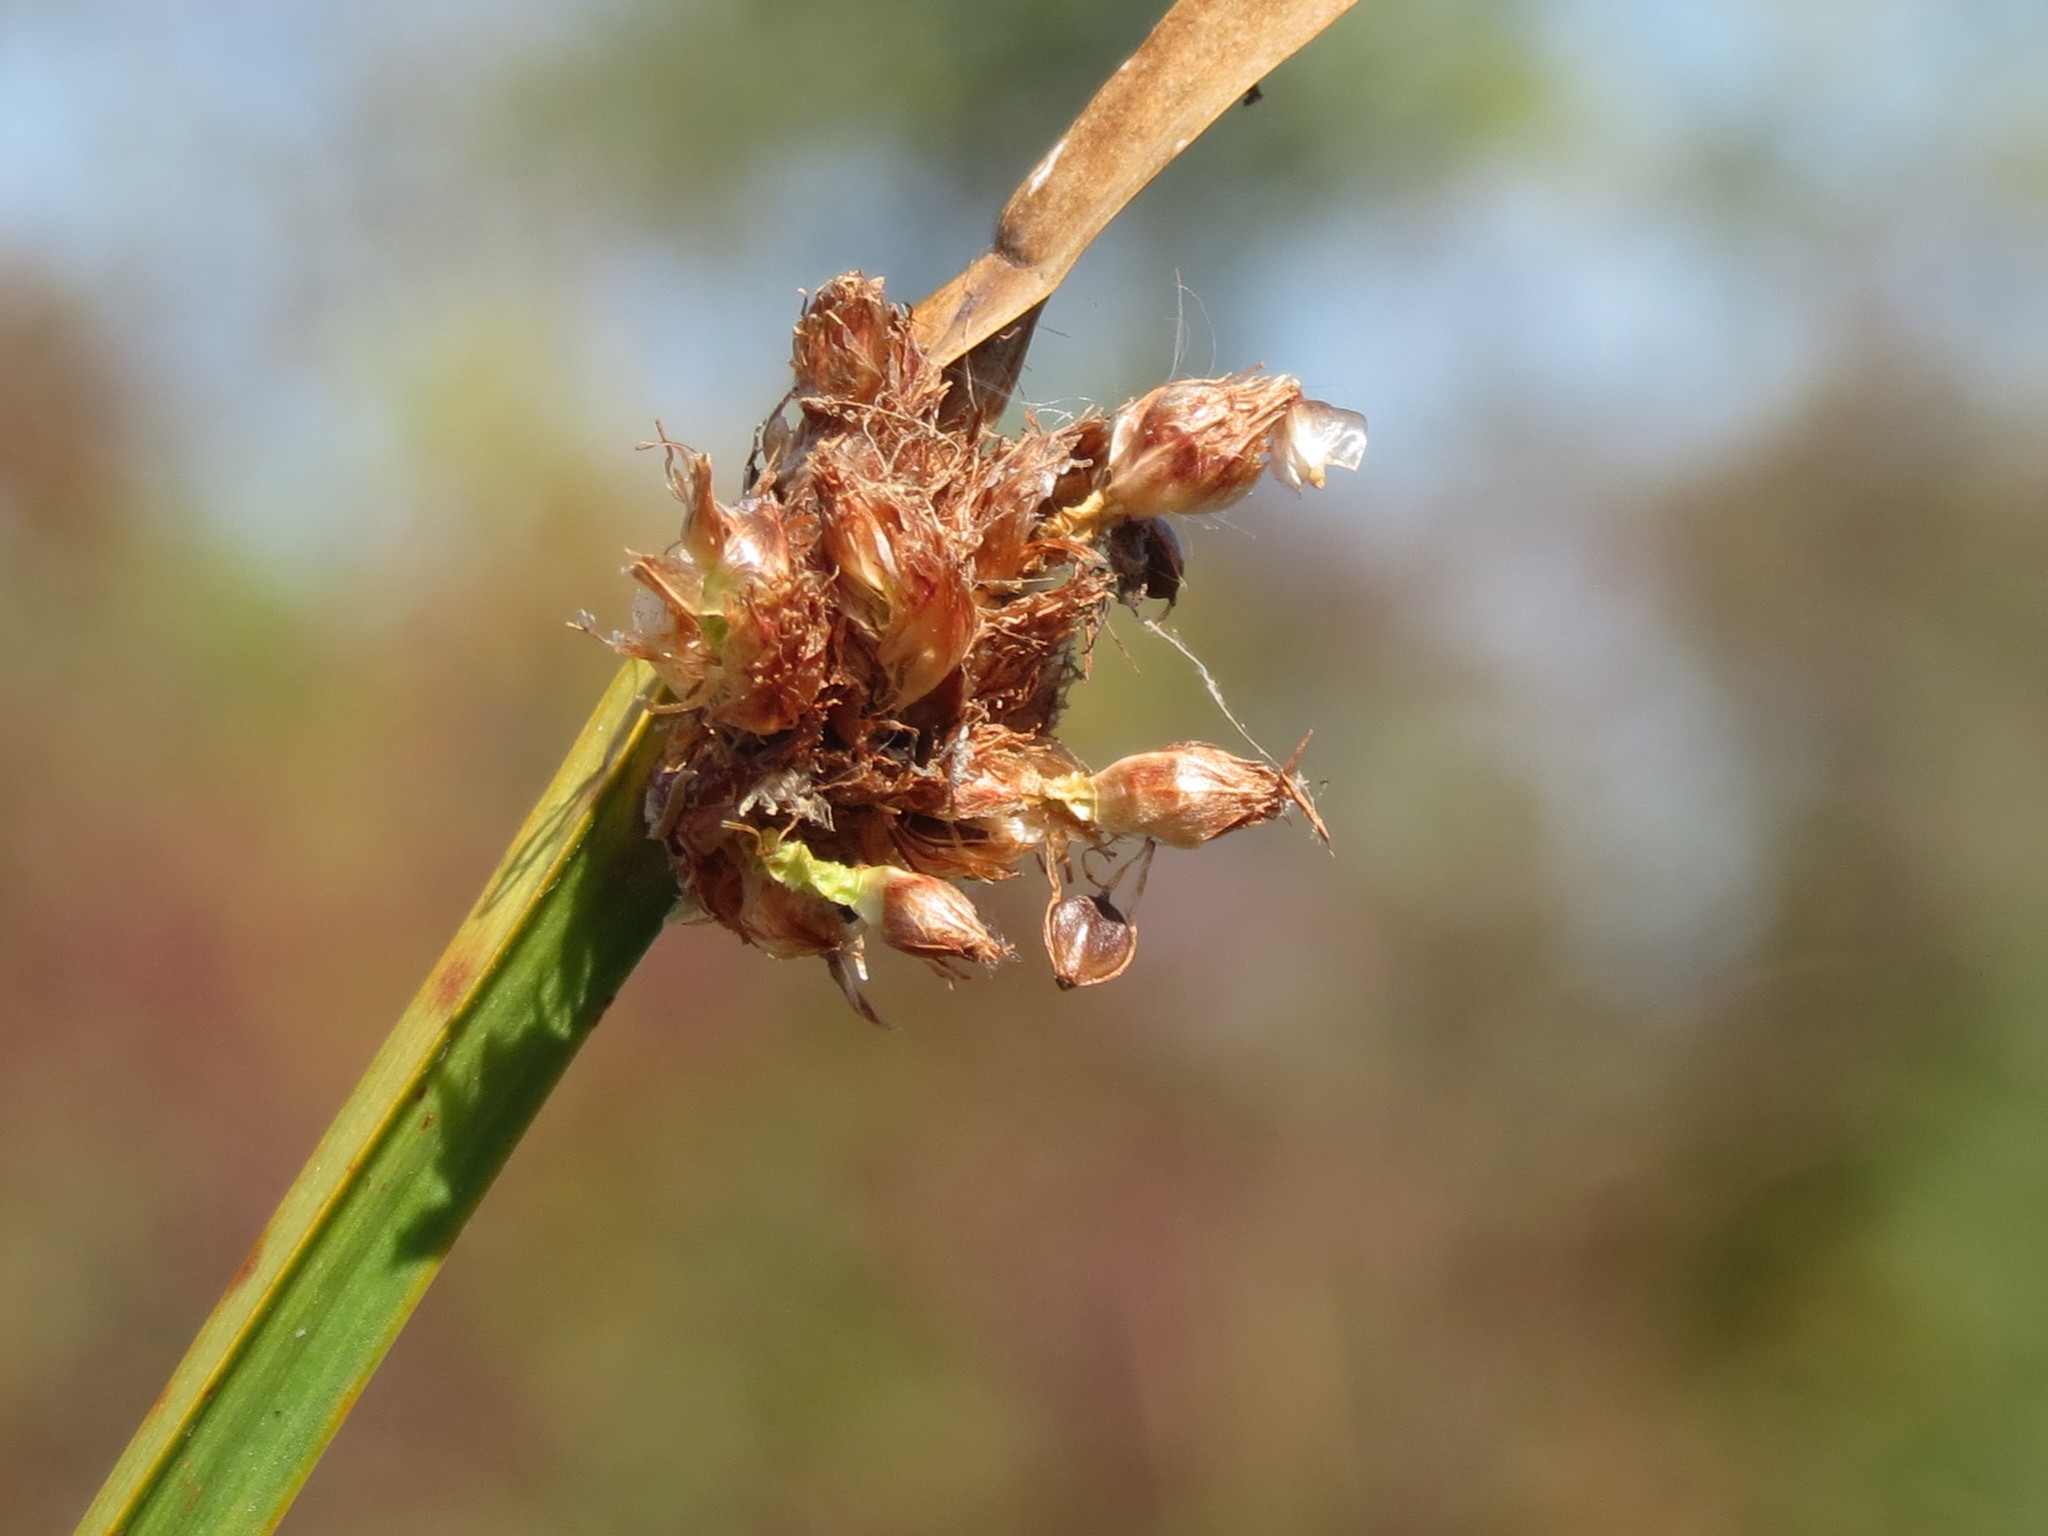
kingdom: Plantae
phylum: Tracheophyta
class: Liliopsida
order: Poales
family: Cyperaceae
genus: Schoenoplectus
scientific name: Schoenoplectus pungens
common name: Sharp club-rush
